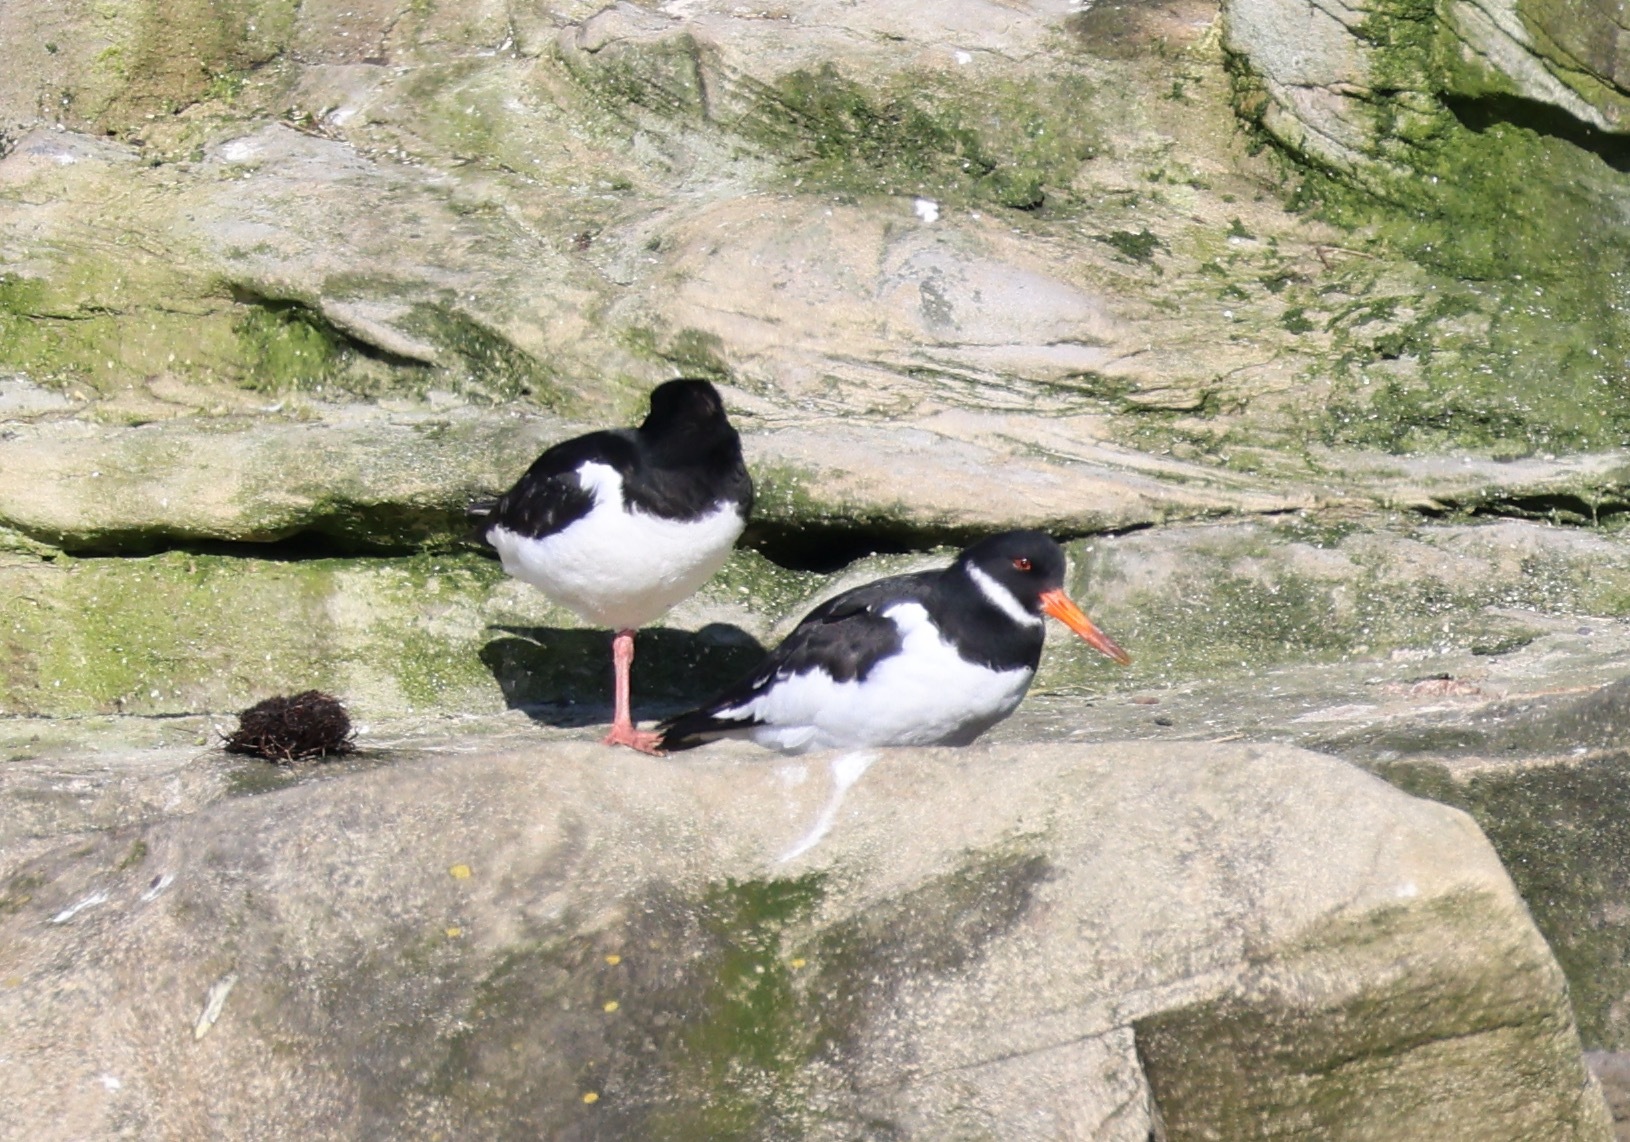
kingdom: Animalia
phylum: Chordata
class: Aves
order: Charadriiformes
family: Haematopodidae
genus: Haematopus
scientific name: Haematopus ostralegus
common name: Eurasian oystercatcher
